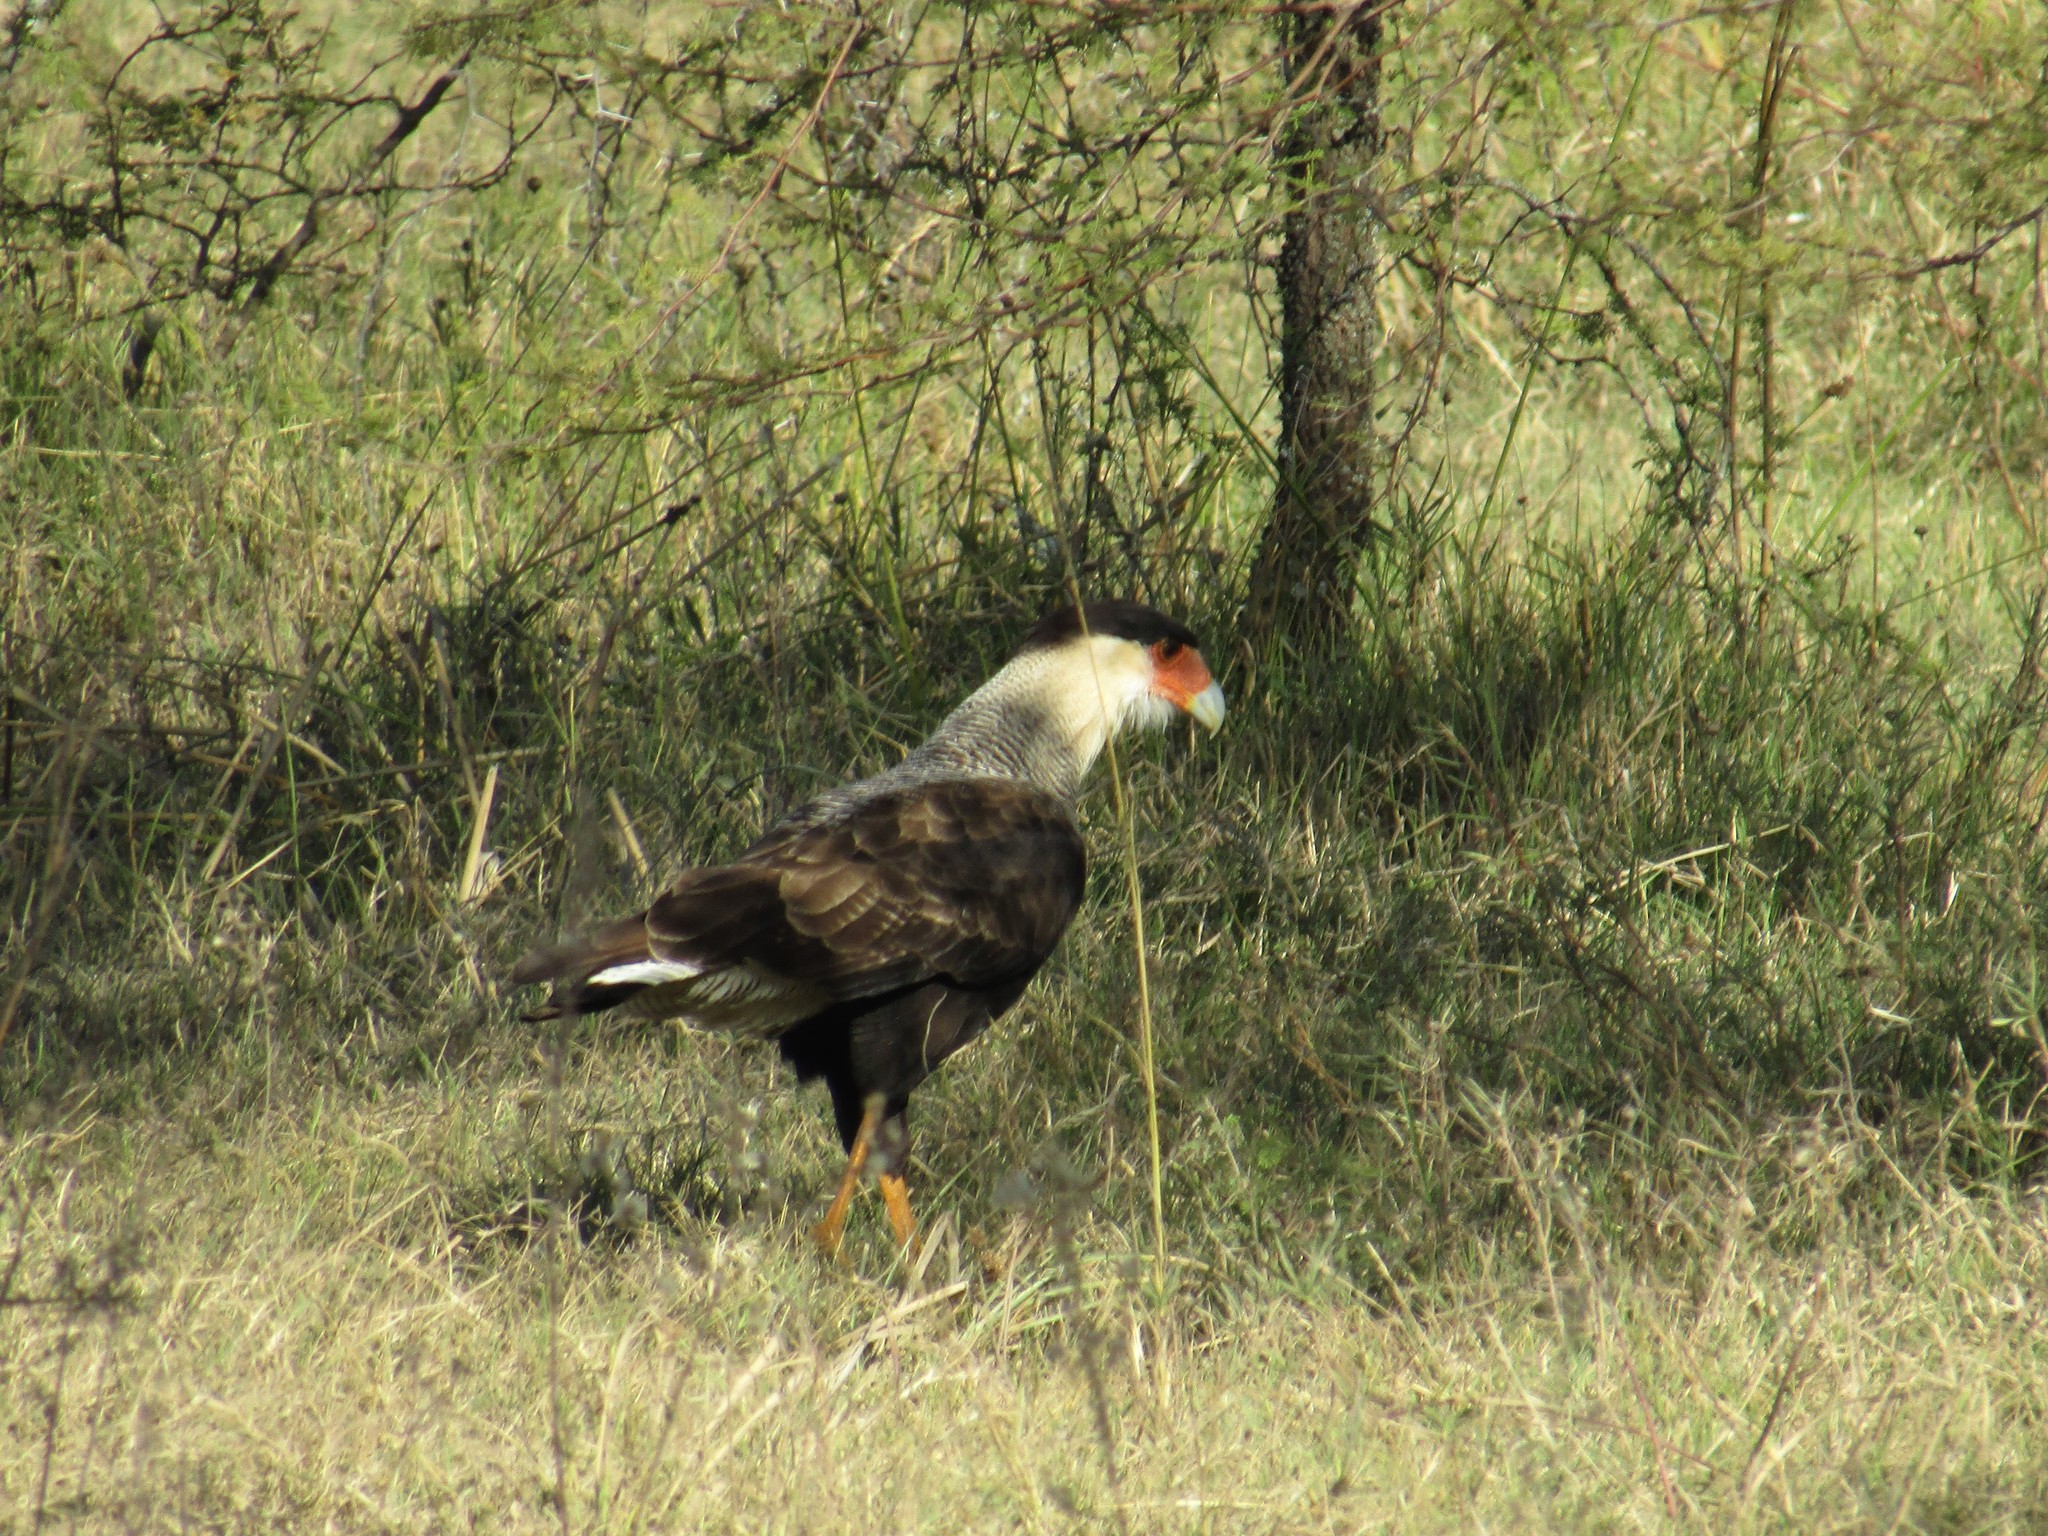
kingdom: Animalia
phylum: Chordata
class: Aves
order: Falconiformes
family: Falconidae
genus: Caracara
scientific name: Caracara plancus
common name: Southern caracara
